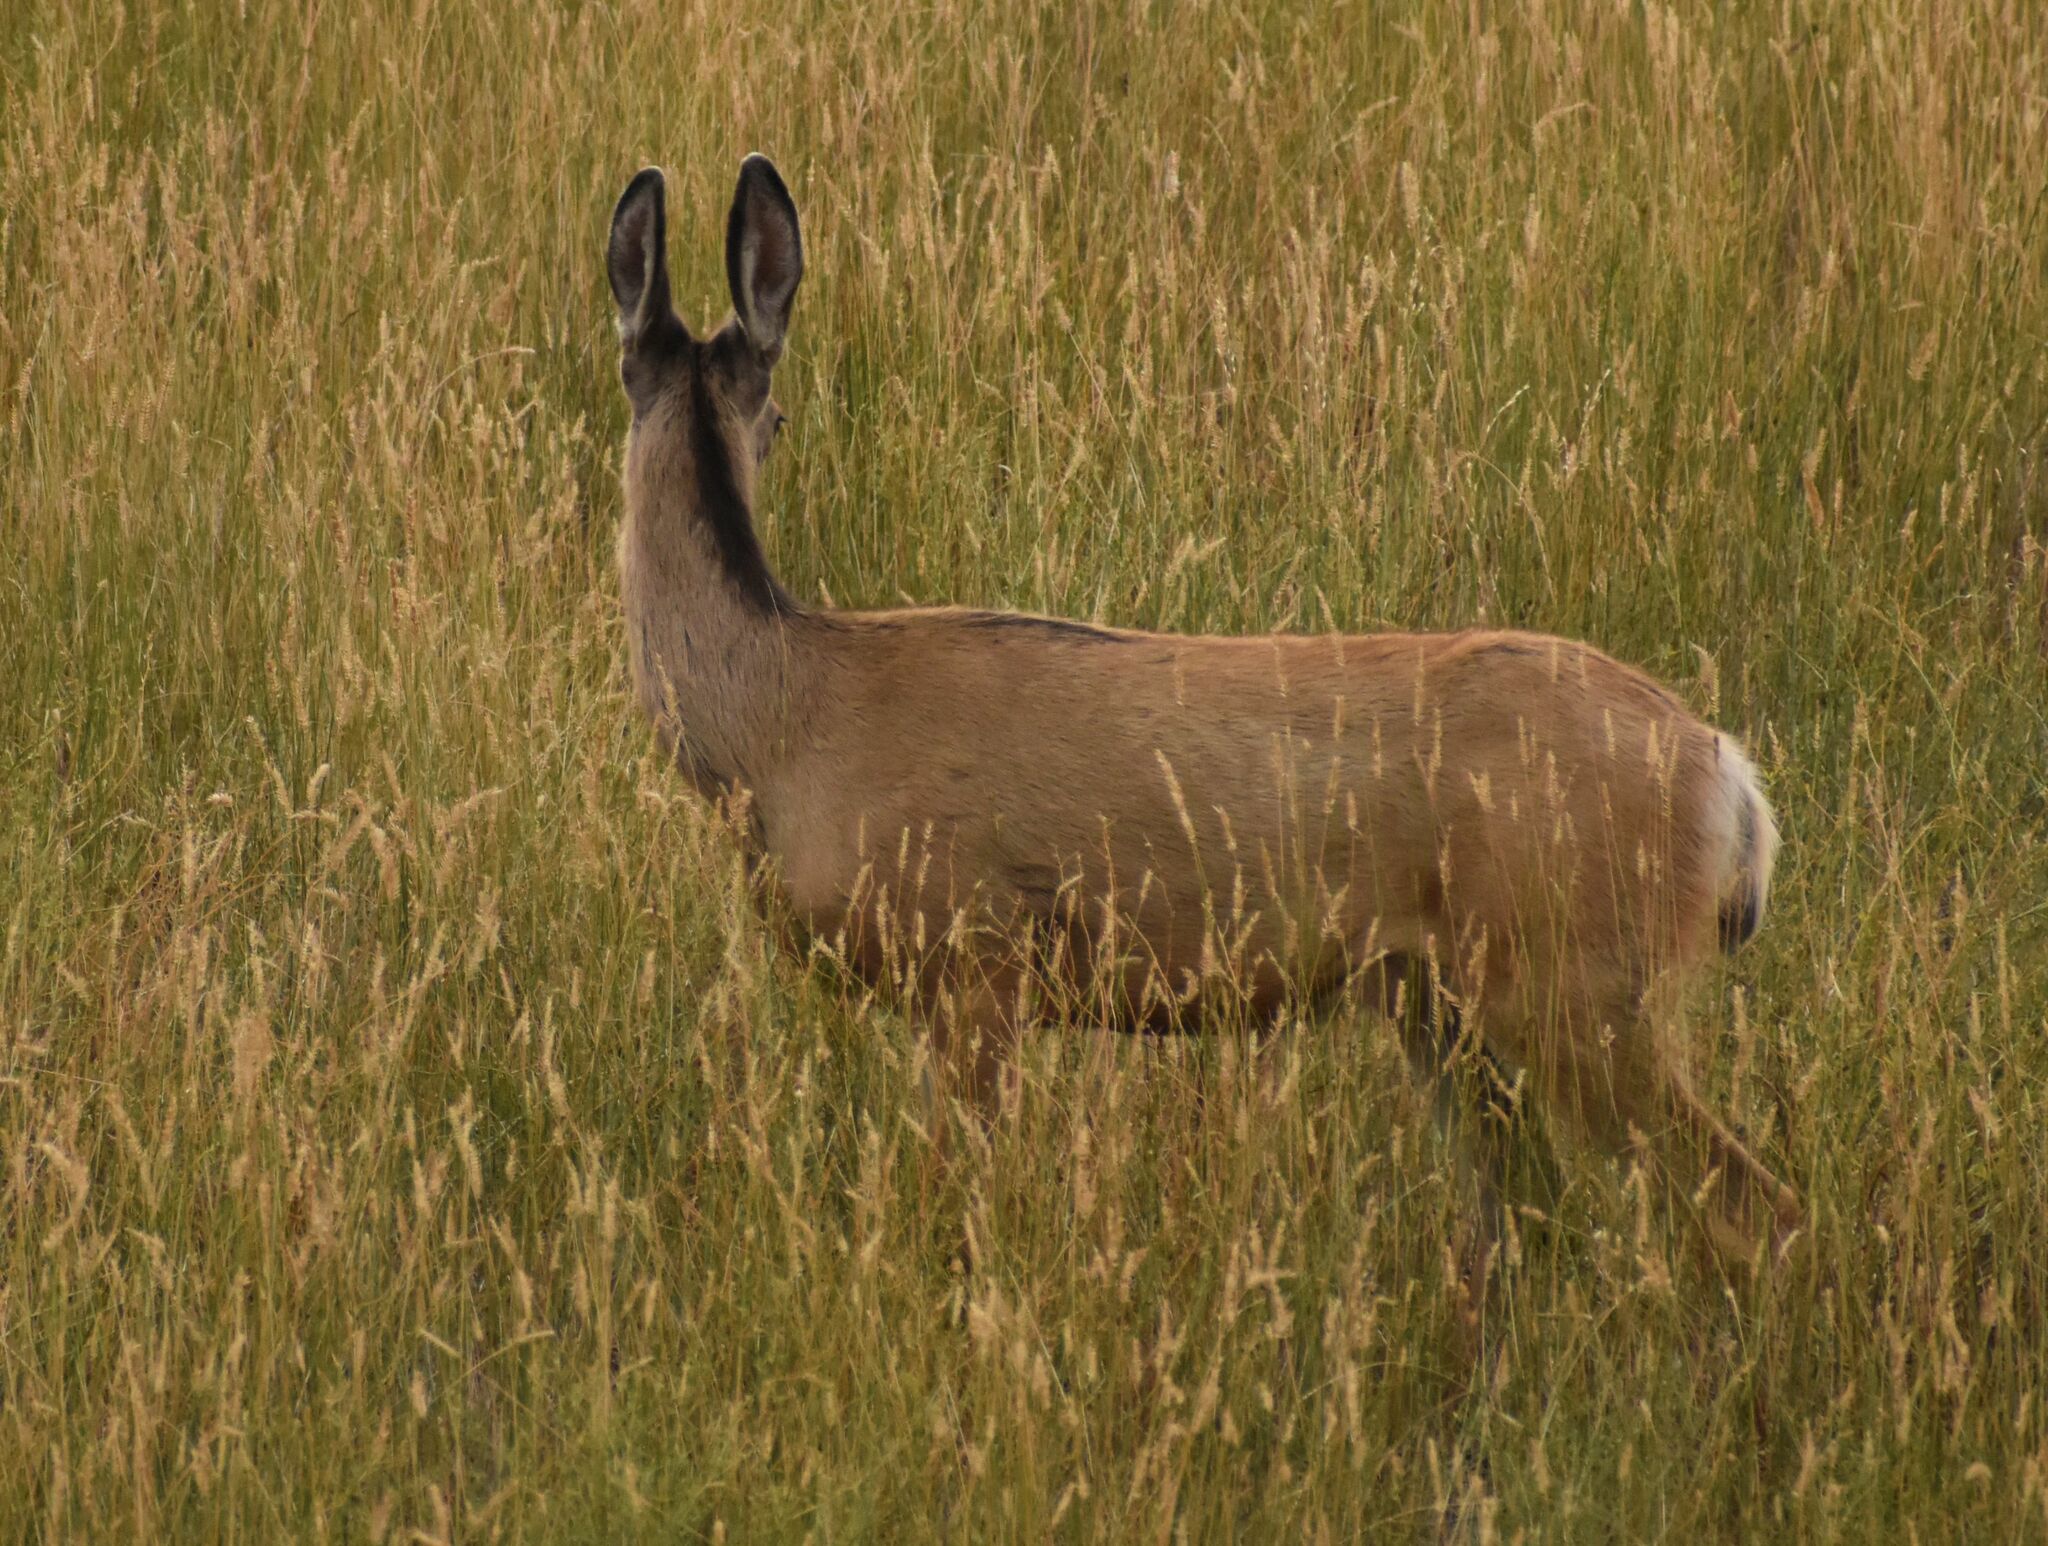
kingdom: Animalia
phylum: Chordata
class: Mammalia
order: Artiodactyla
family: Cervidae
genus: Odocoileus
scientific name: Odocoileus hemionus
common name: Mule deer
